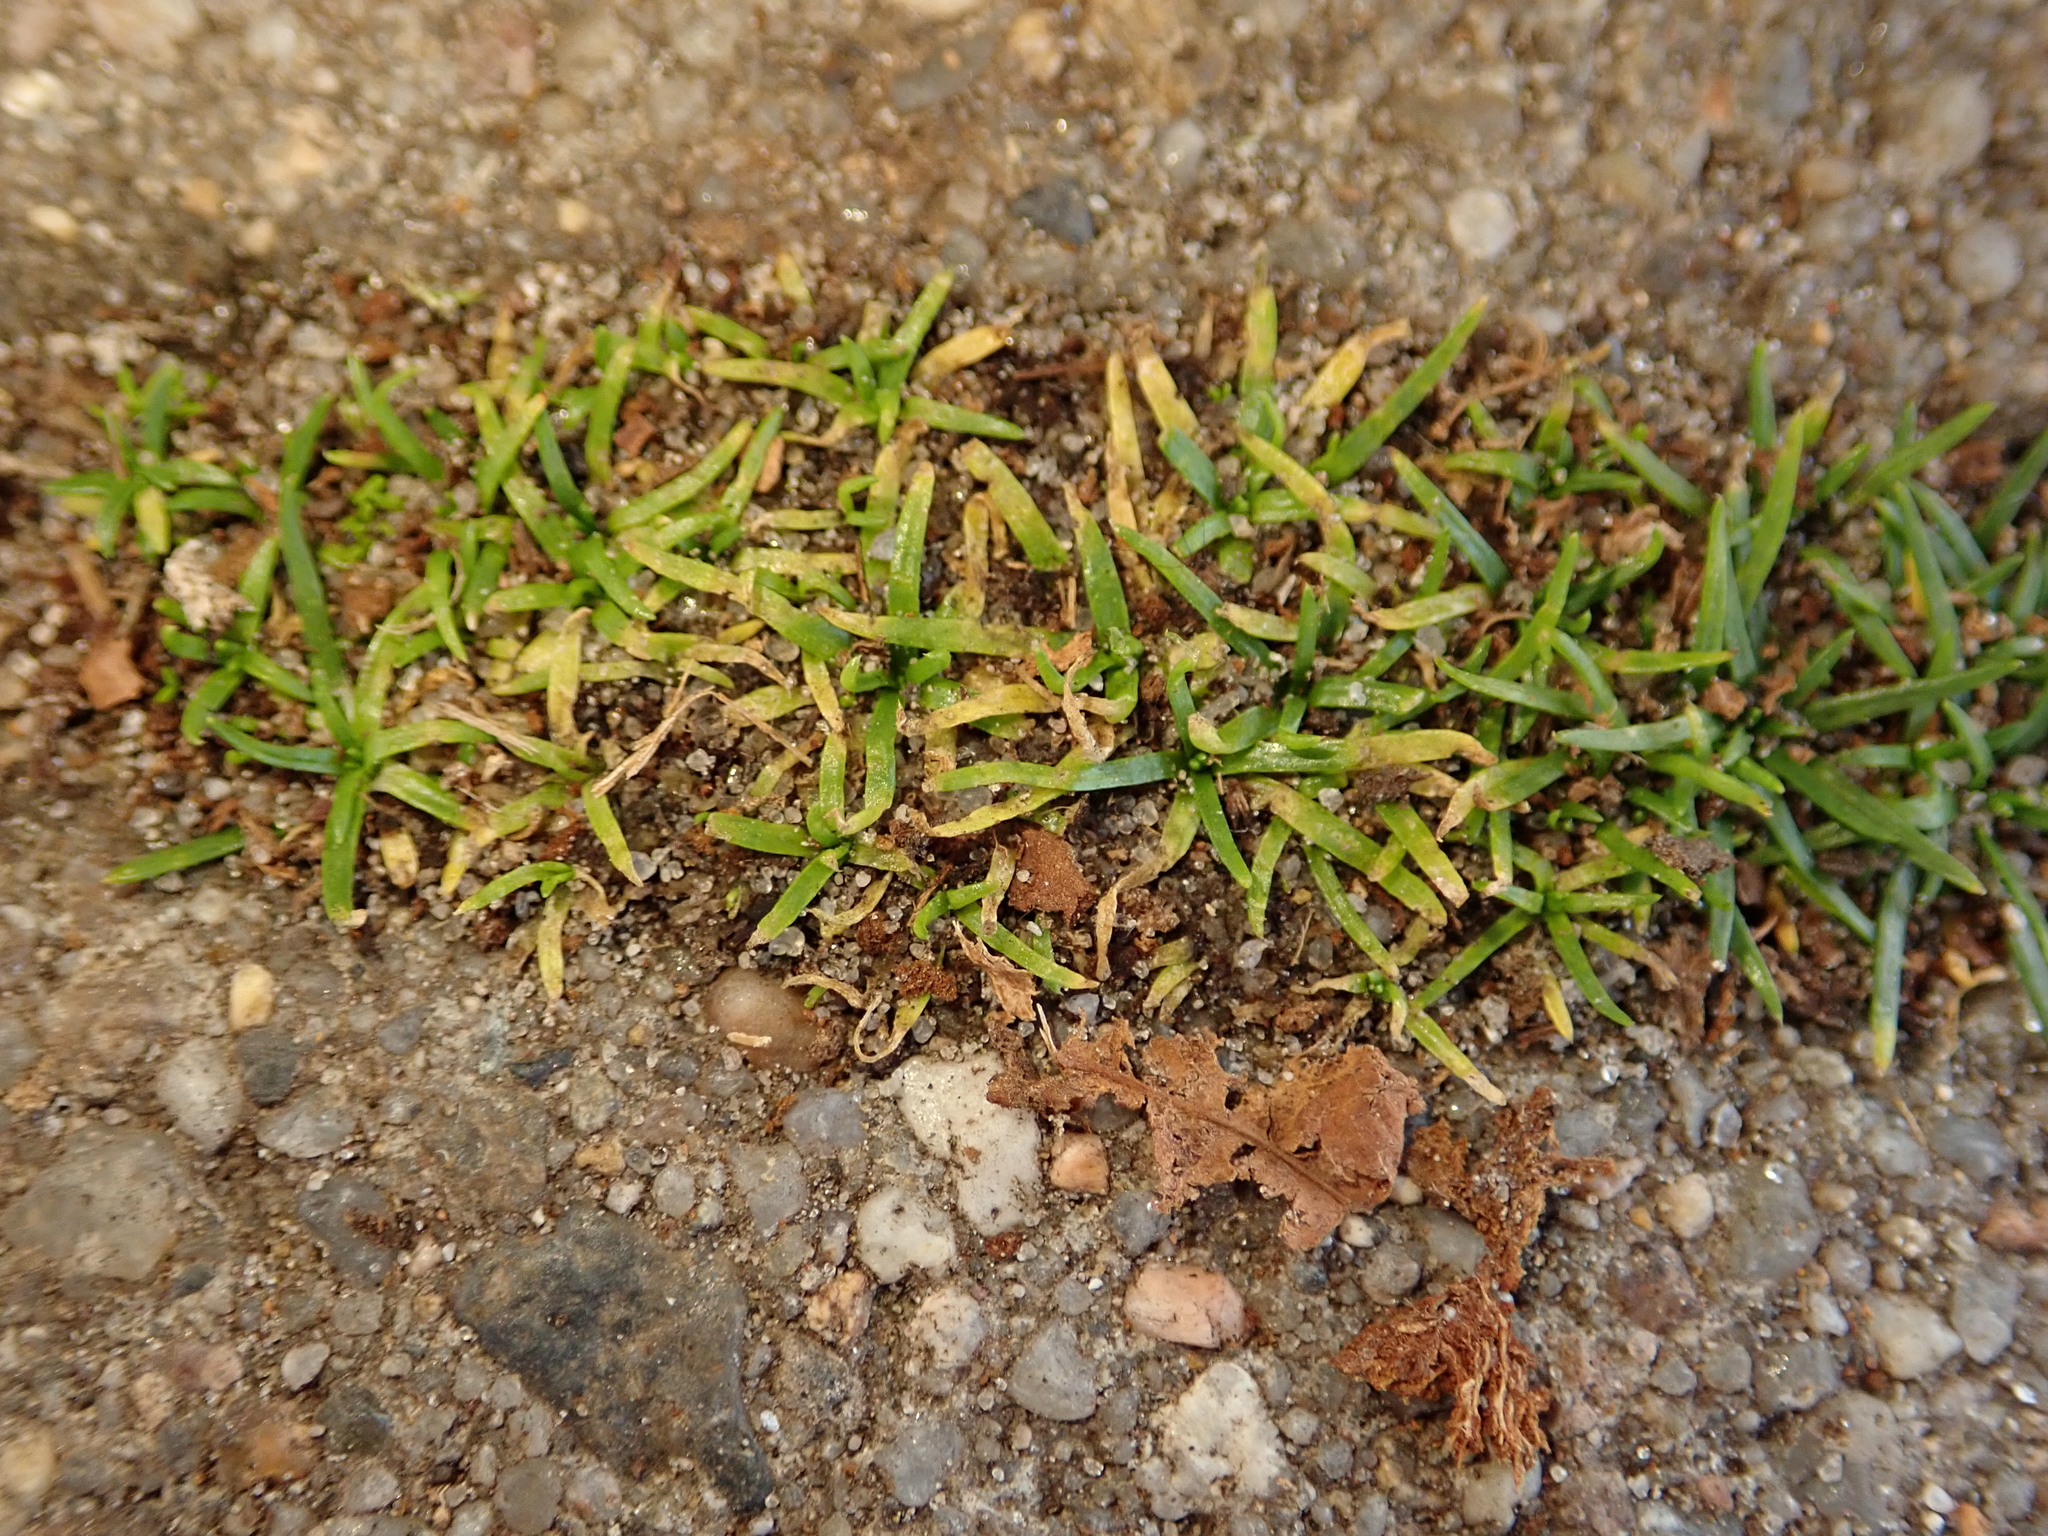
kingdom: Plantae
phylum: Tracheophyta
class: Magnoliopsida
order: Caryophyllales
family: Caryophyllaceae
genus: Sagina
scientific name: Sagina procumbens
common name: Procumbent pearlwort
